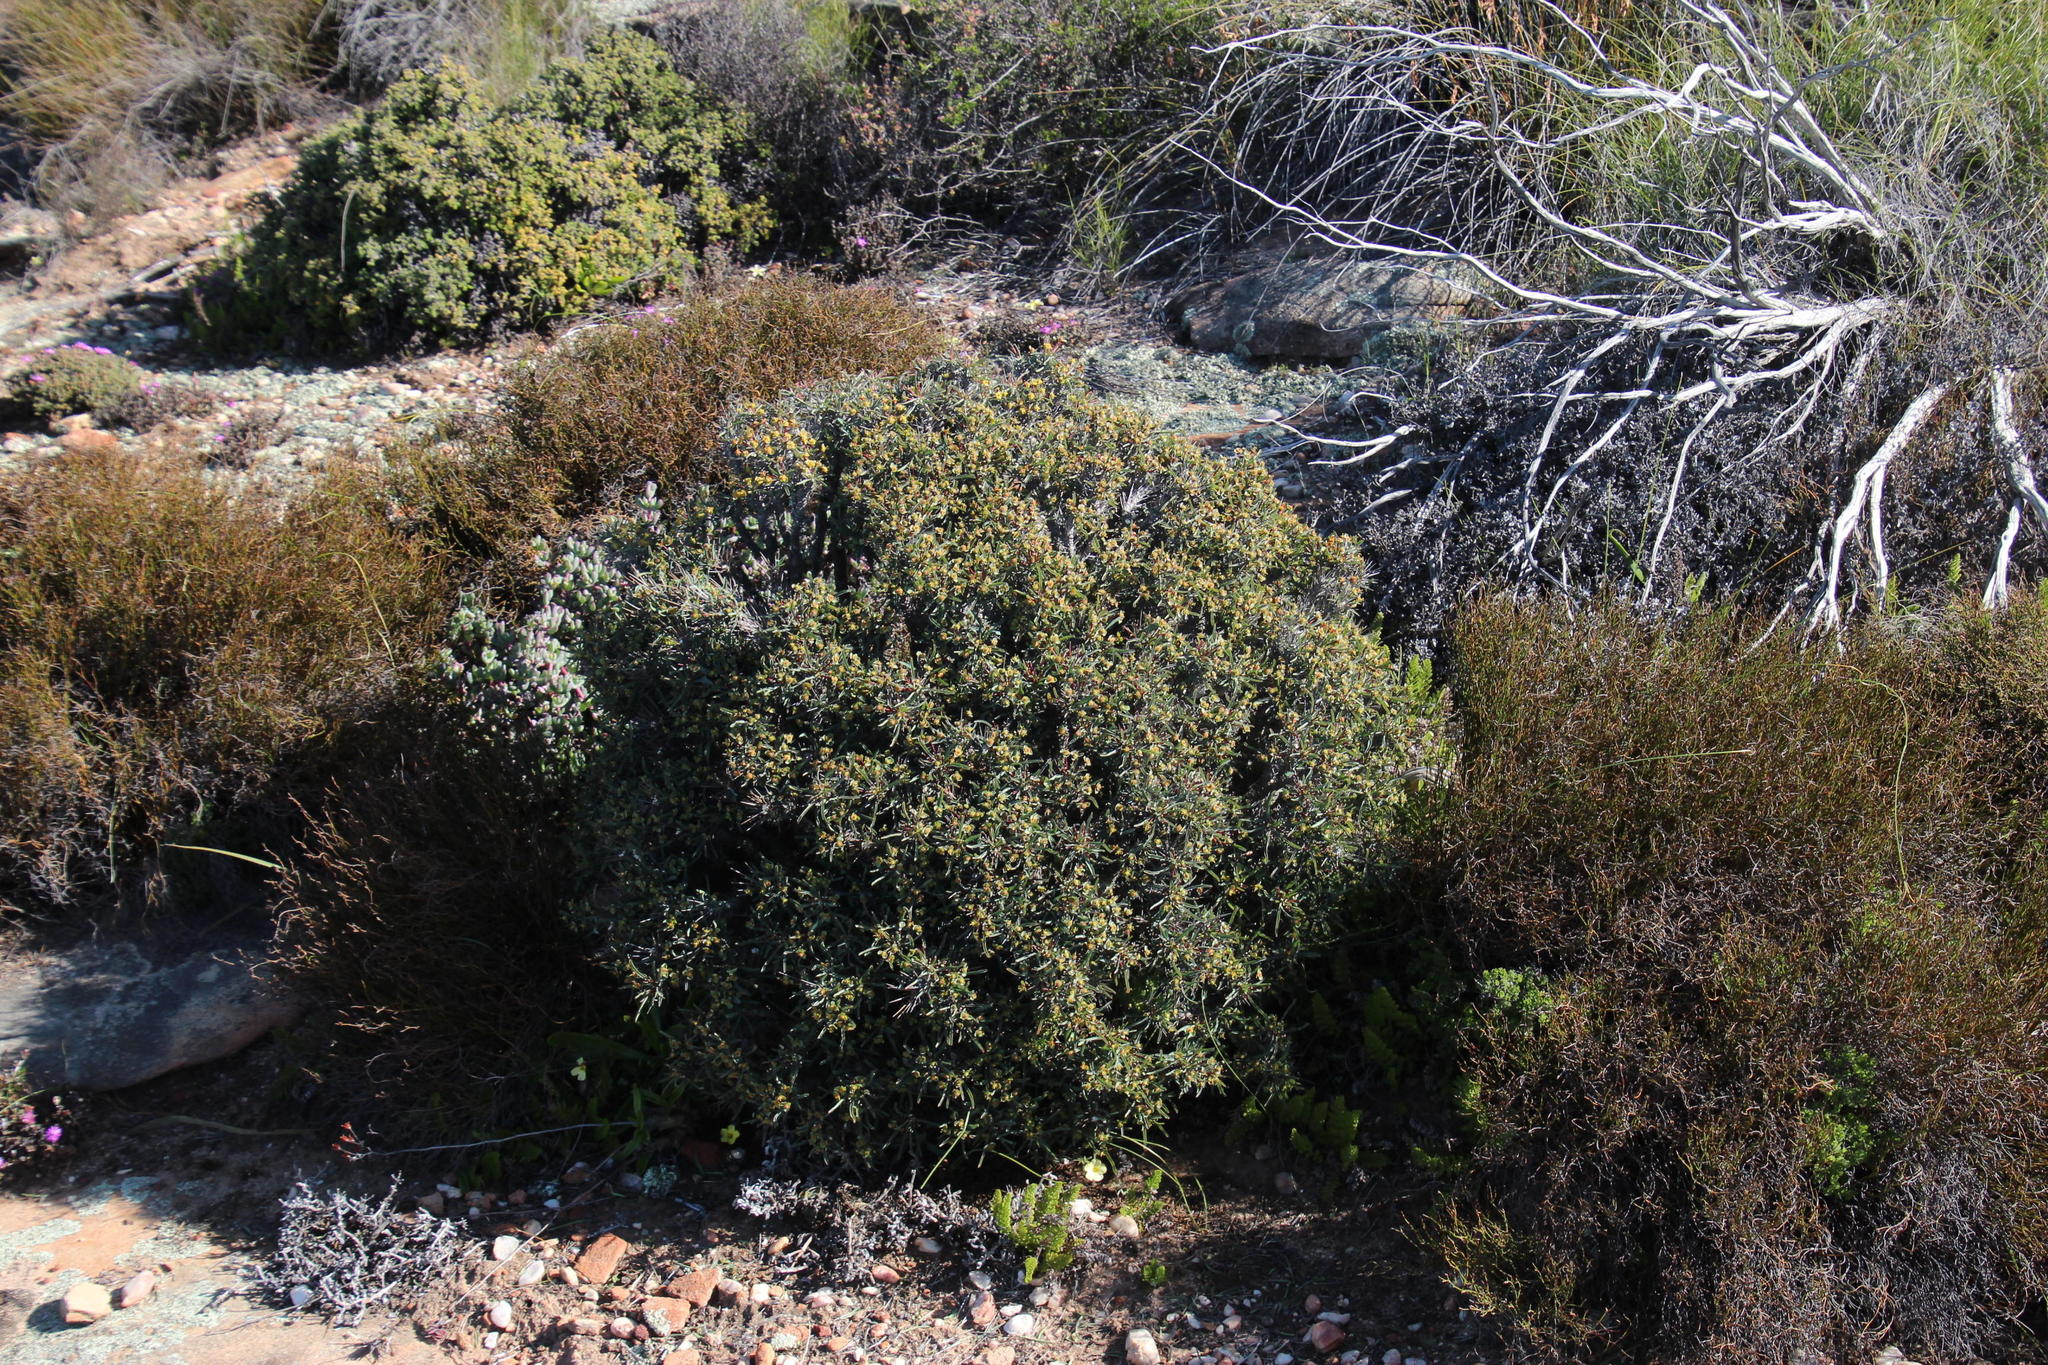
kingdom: Plantae
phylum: Tracheophyta
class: Magnoliopsida
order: Malpighiales
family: Euphorbiaceae
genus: Euphorbia
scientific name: Euphorbia loricata
